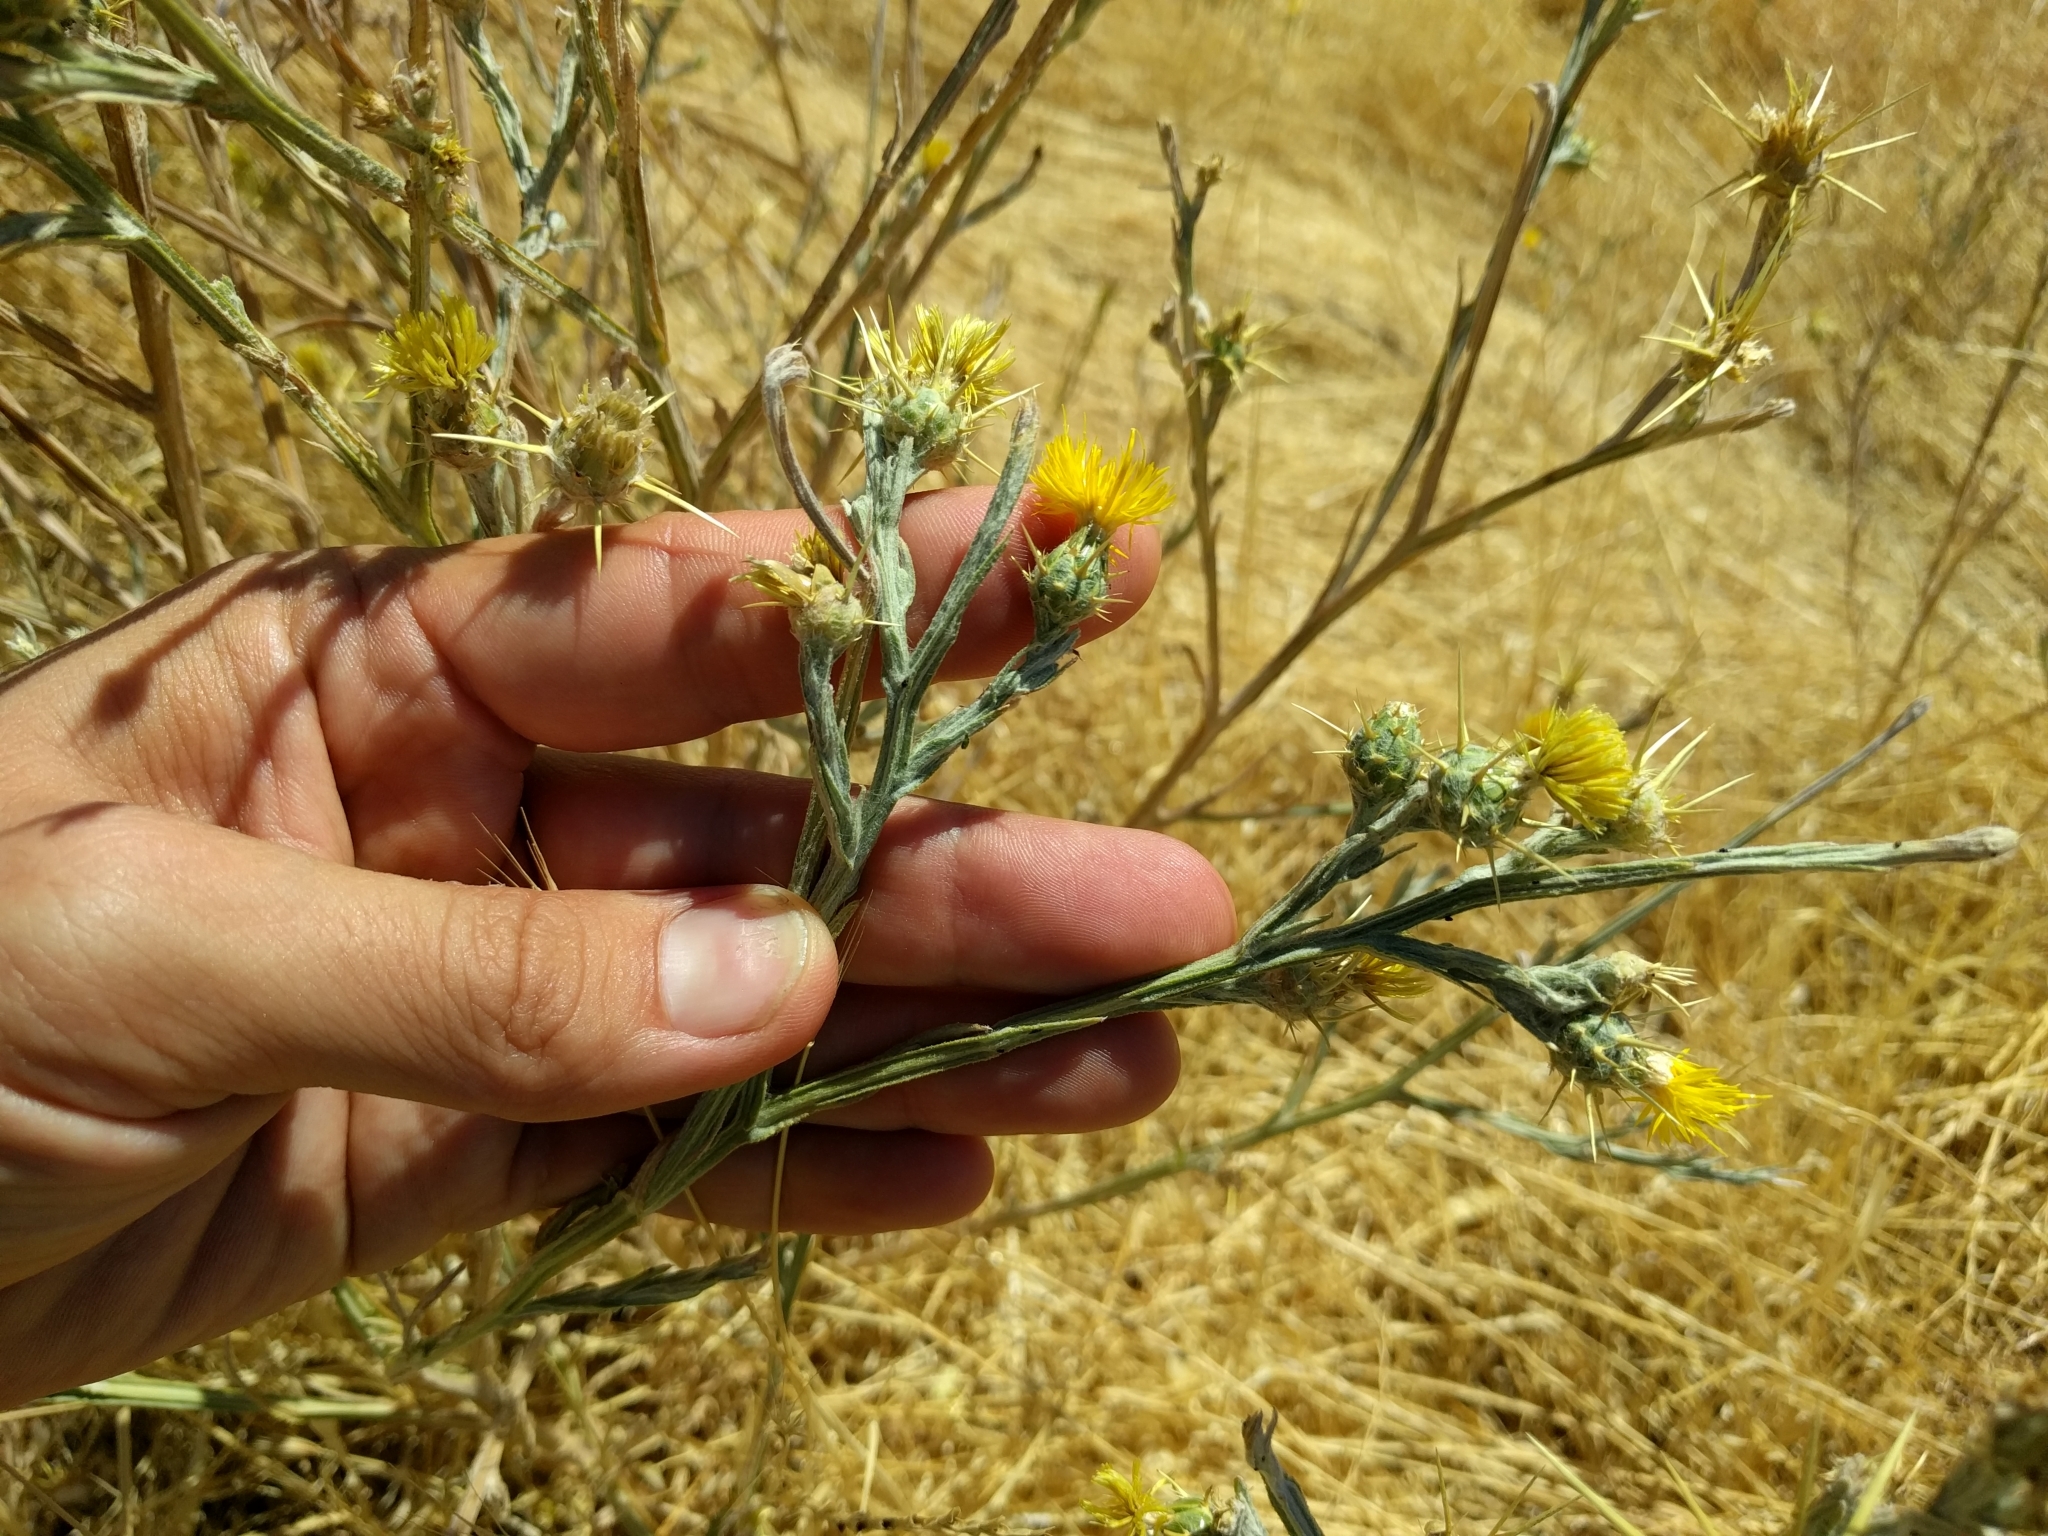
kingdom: Plantae
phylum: Tracheophyta
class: Magnoliopsida
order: Asterales
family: Asteraceae
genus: Centaurea
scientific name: Centaurea solstitialis
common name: Yellow star-thistle
